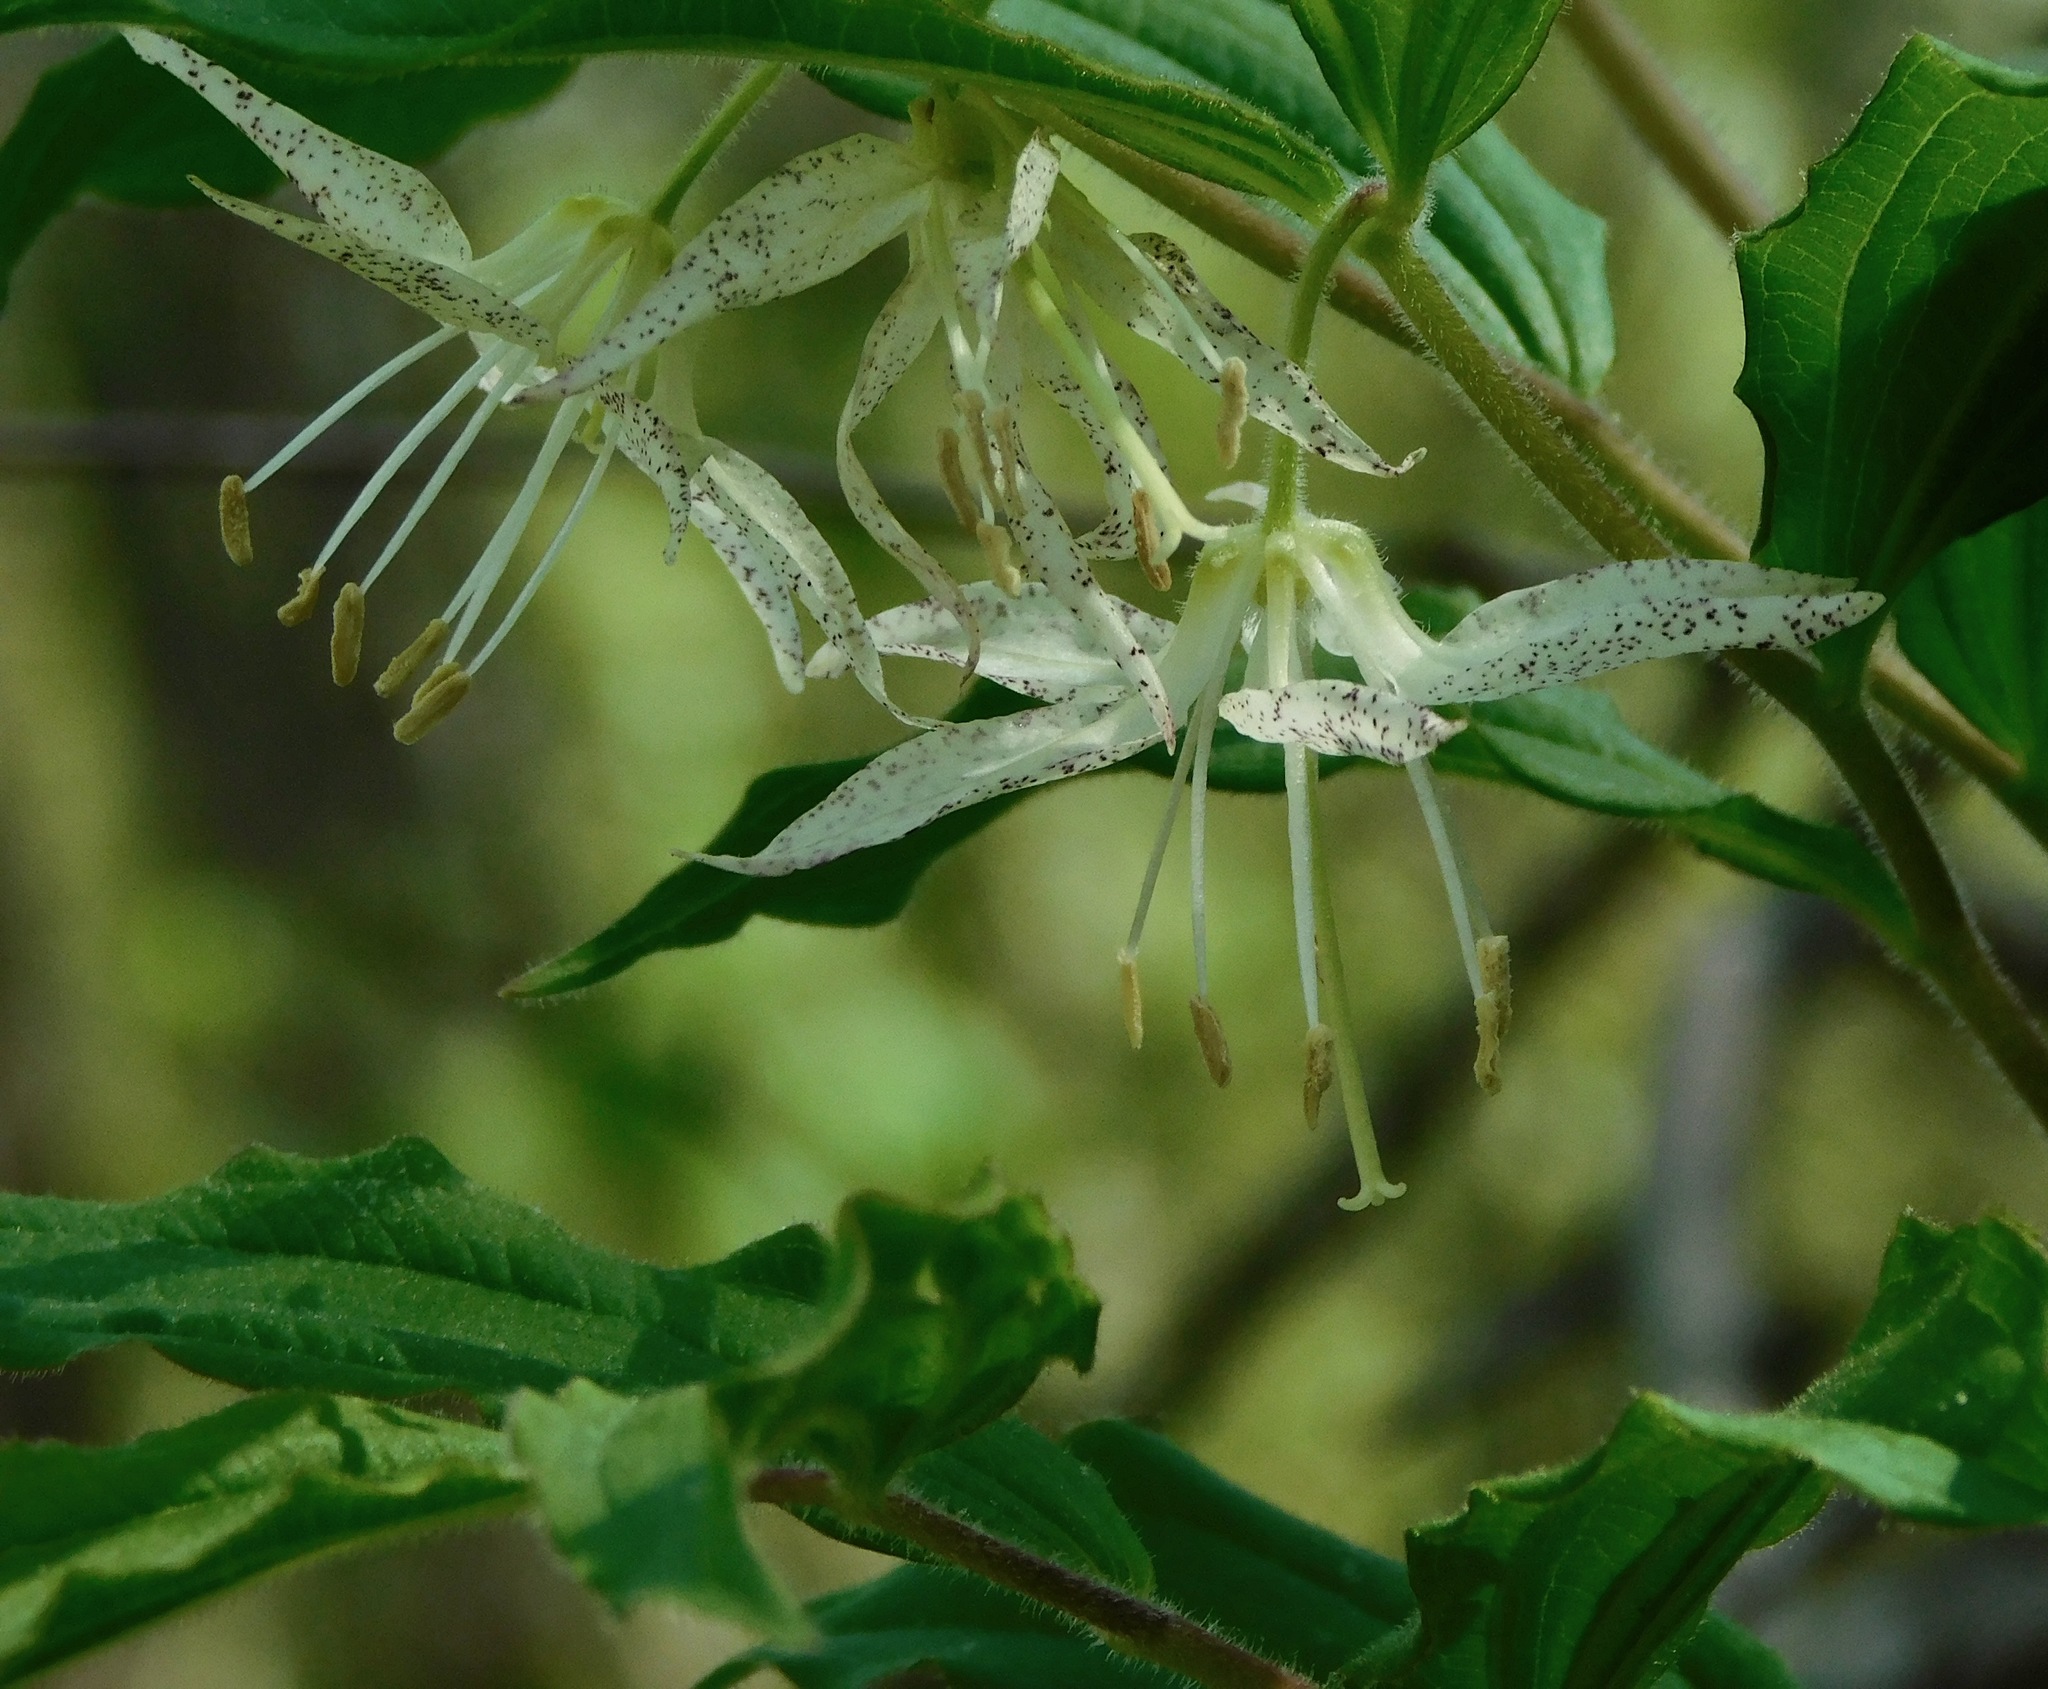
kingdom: Plantae
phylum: Tracheophyta
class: Liliopsida
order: Liliales
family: Liliaceae
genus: Prosartes
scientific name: Prosartes maculata
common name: Yellow mandarin
